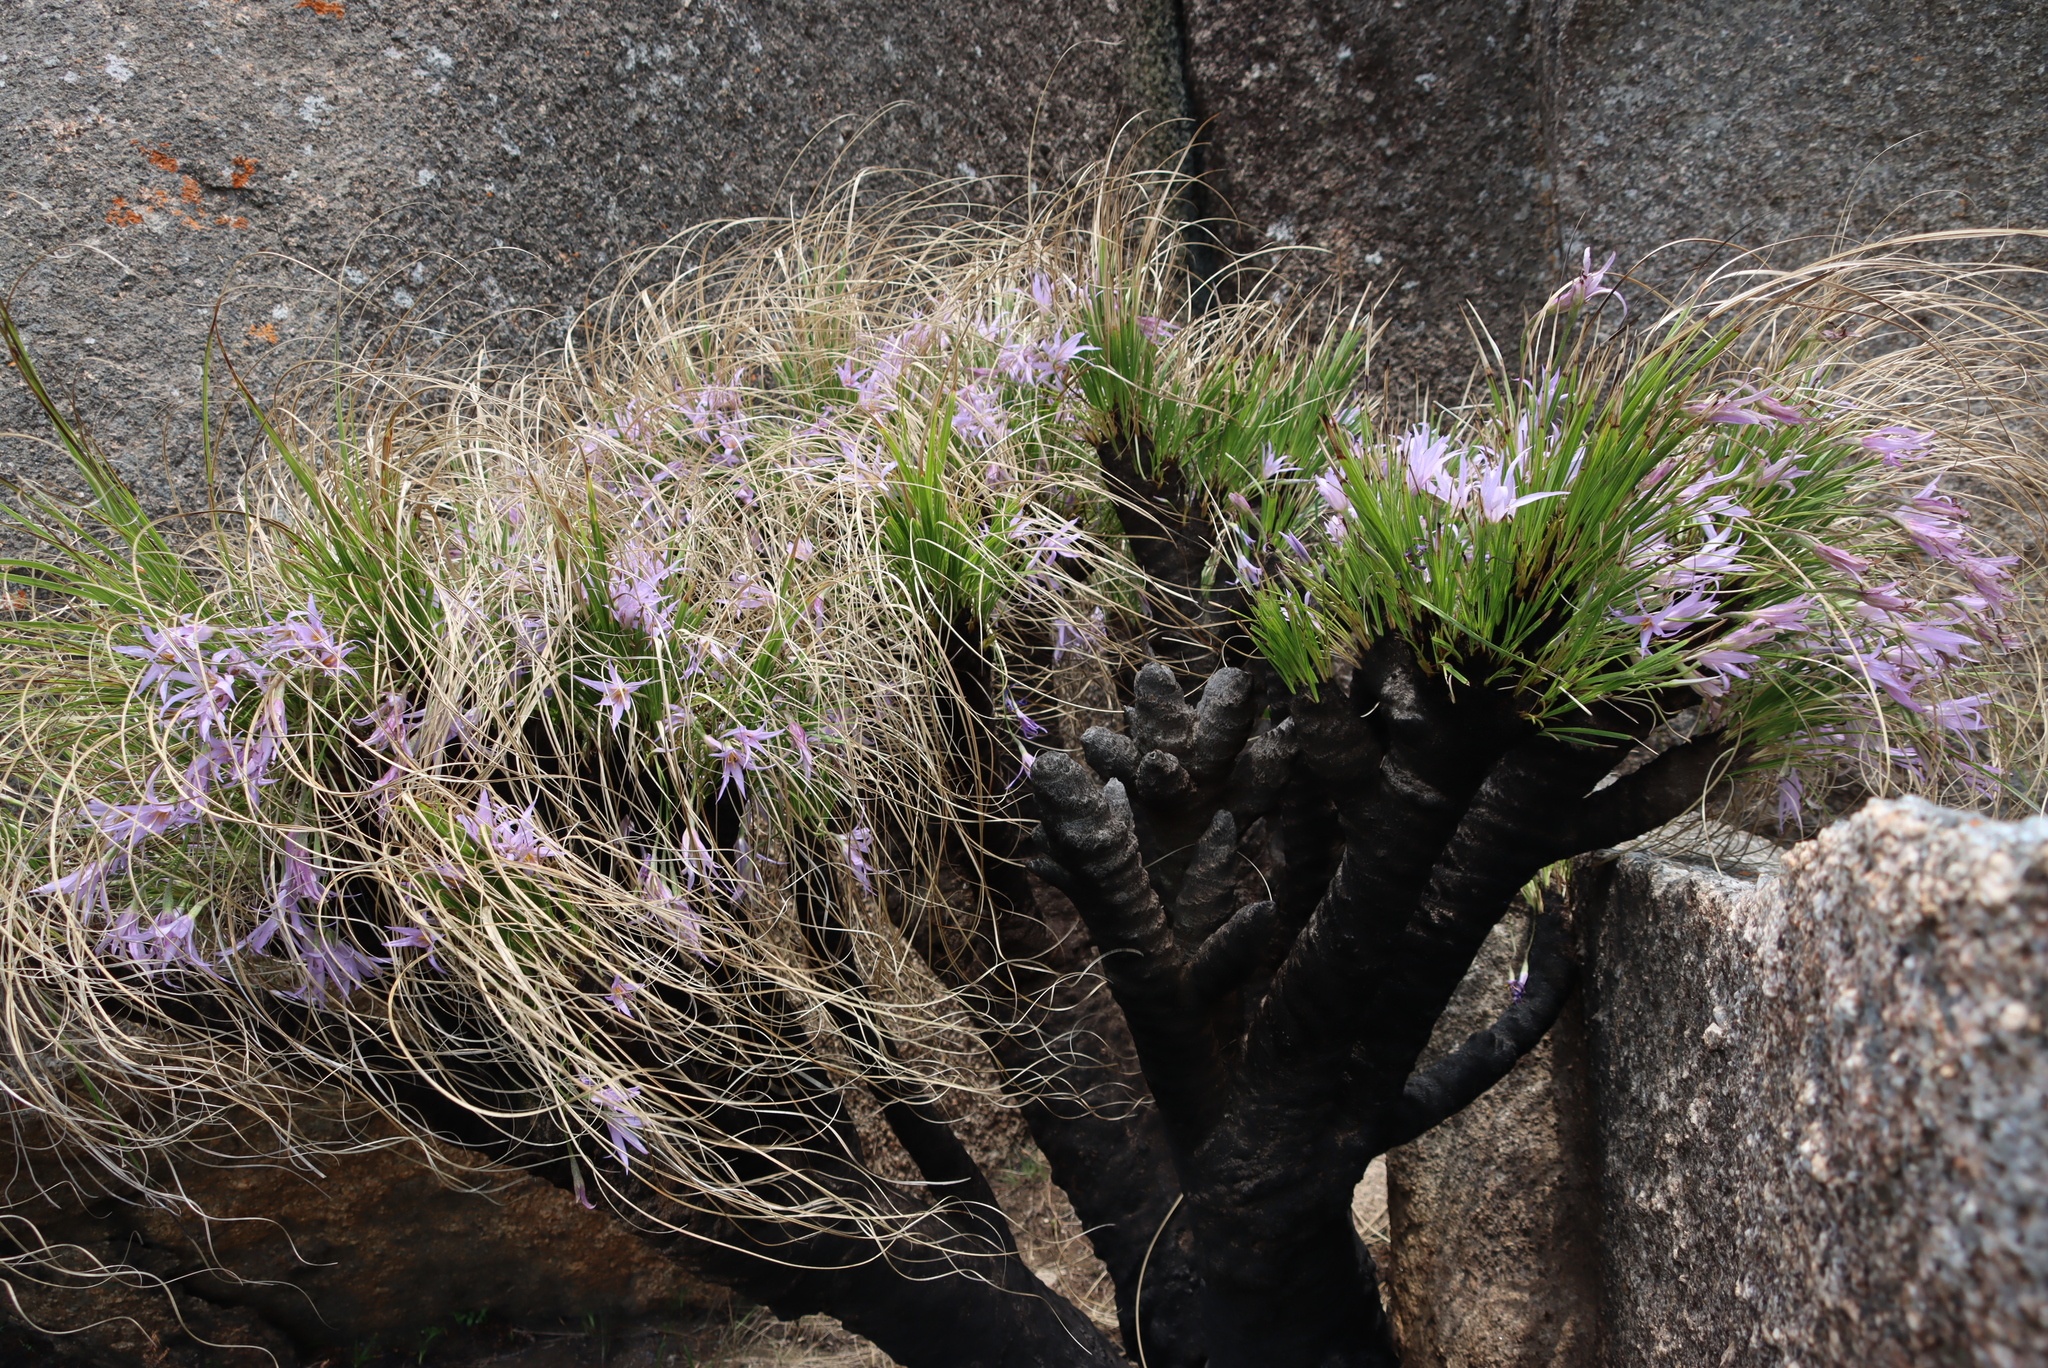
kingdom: Plantae
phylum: Tracheophyta
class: Liliopsida
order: Pandanales
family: Velloziaceae
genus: Xerophyta
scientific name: Xerophyta retinervis
